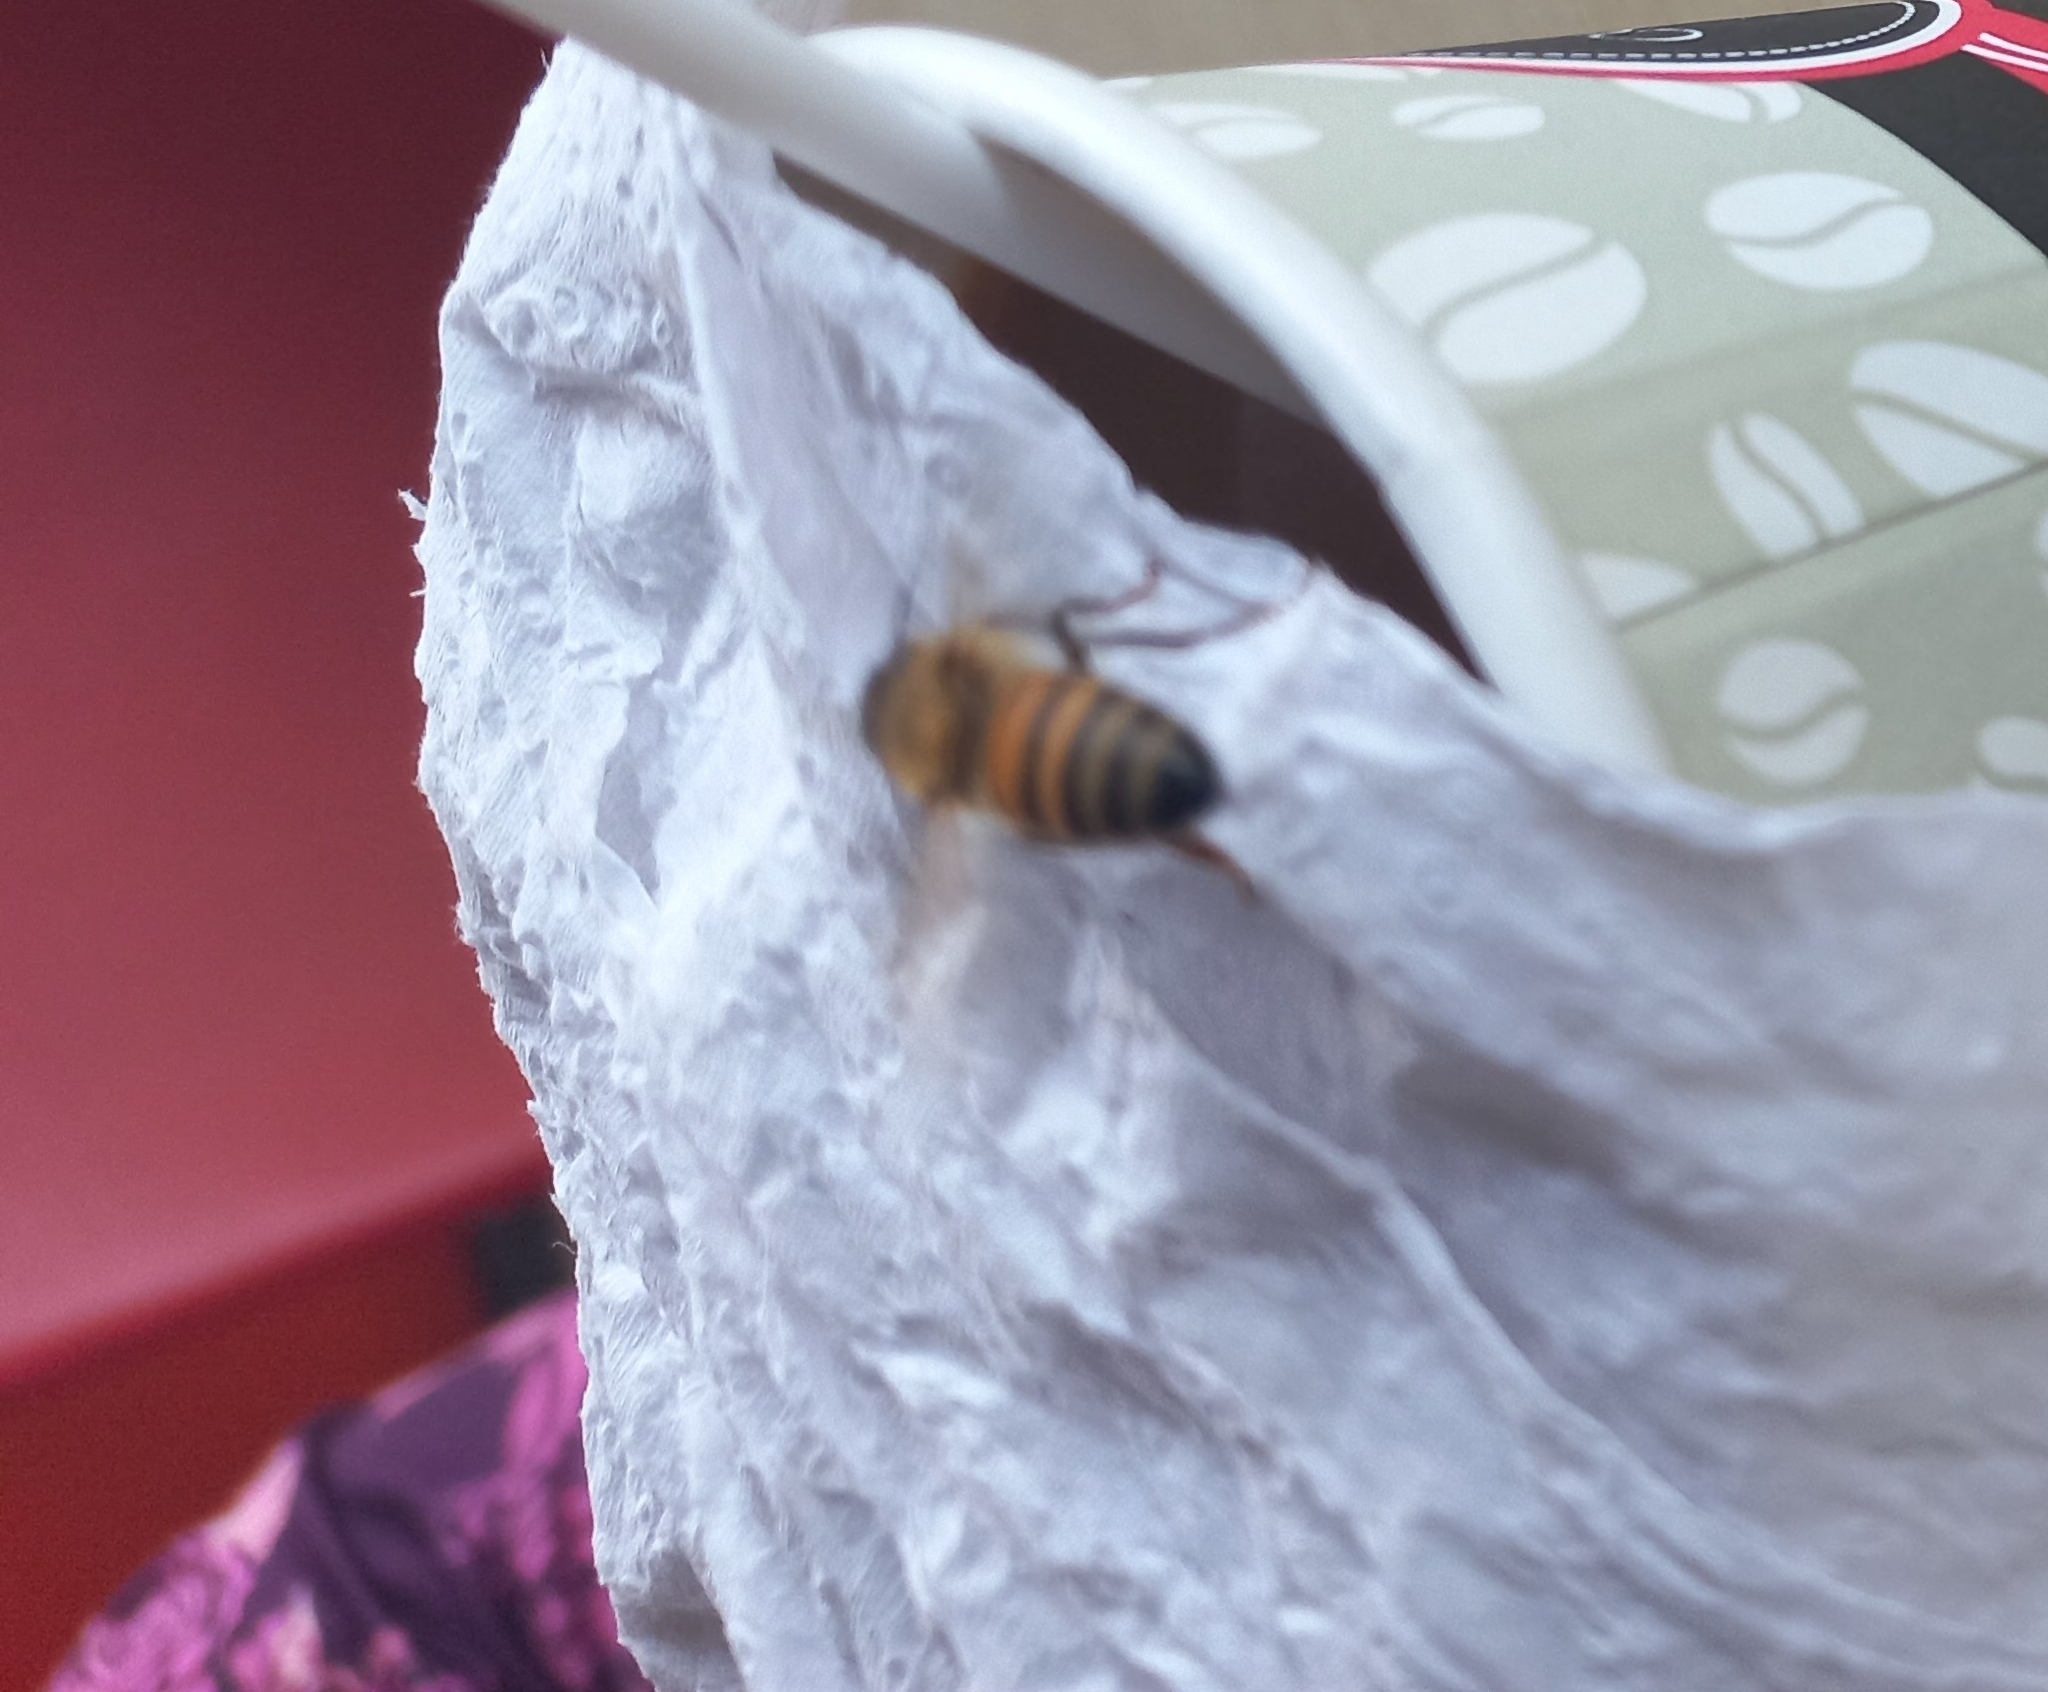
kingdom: Animalia
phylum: Arthropoda
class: Insecta
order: Hymenoptera
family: Apidae
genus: Apis
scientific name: Apis mellifera
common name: Honey bee
